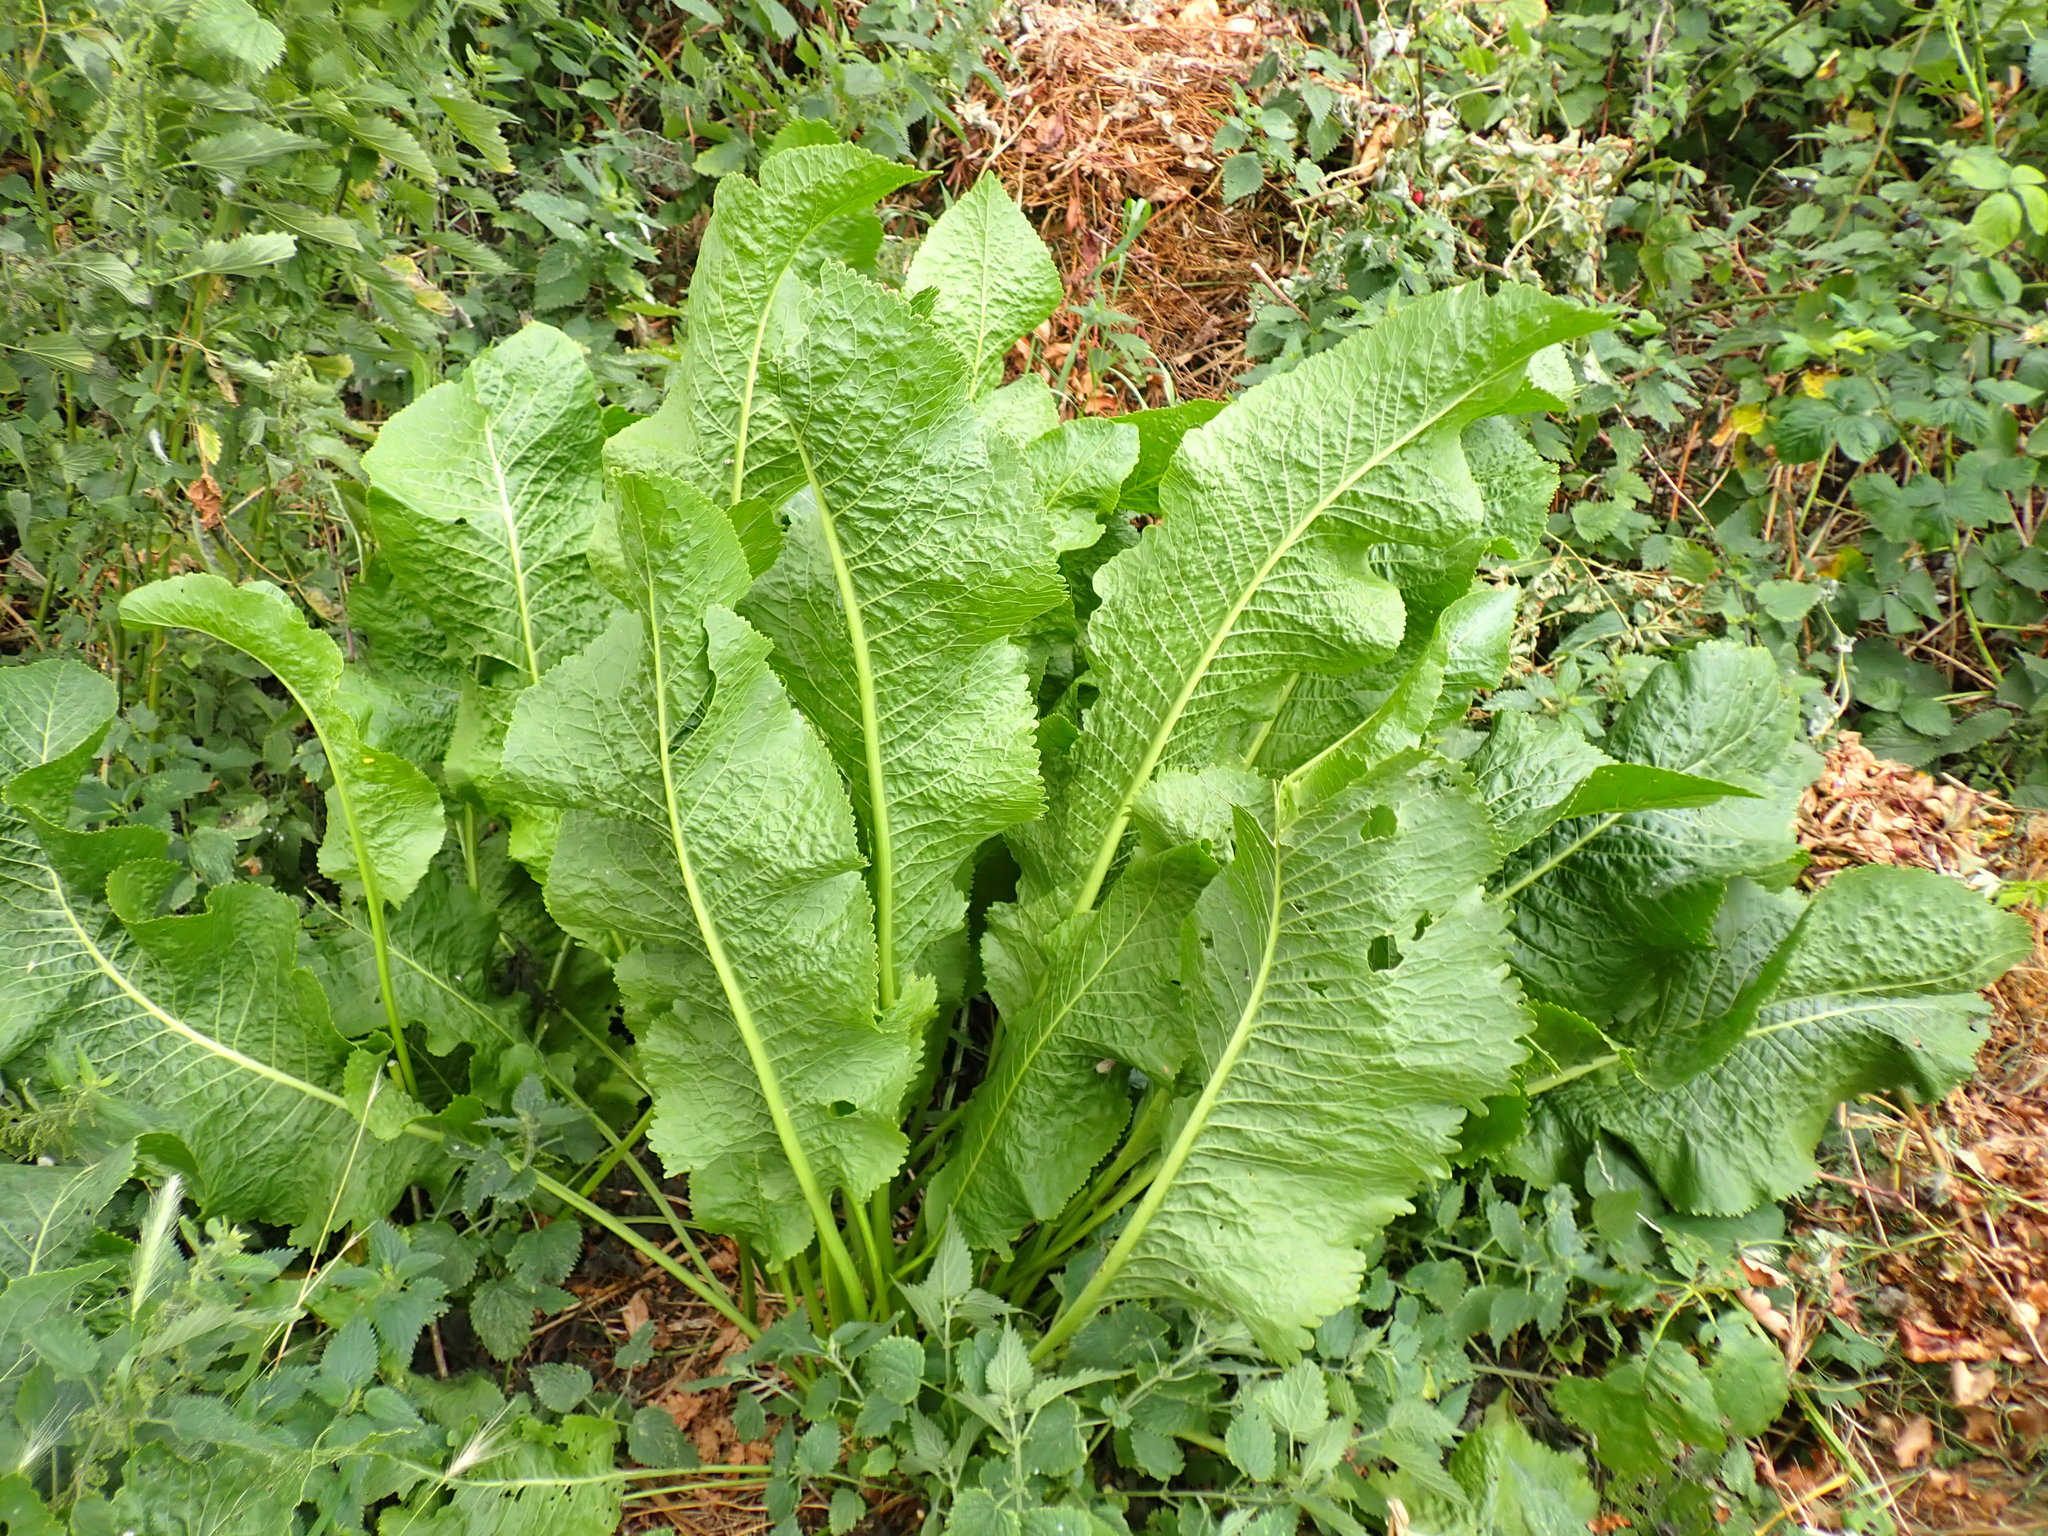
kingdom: Plantae
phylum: Tracheophyta
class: Magnoliopsida
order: Brassicales
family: Brassicaceae
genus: Armoracia
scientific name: Armoracia rusticana
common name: Horseradish
